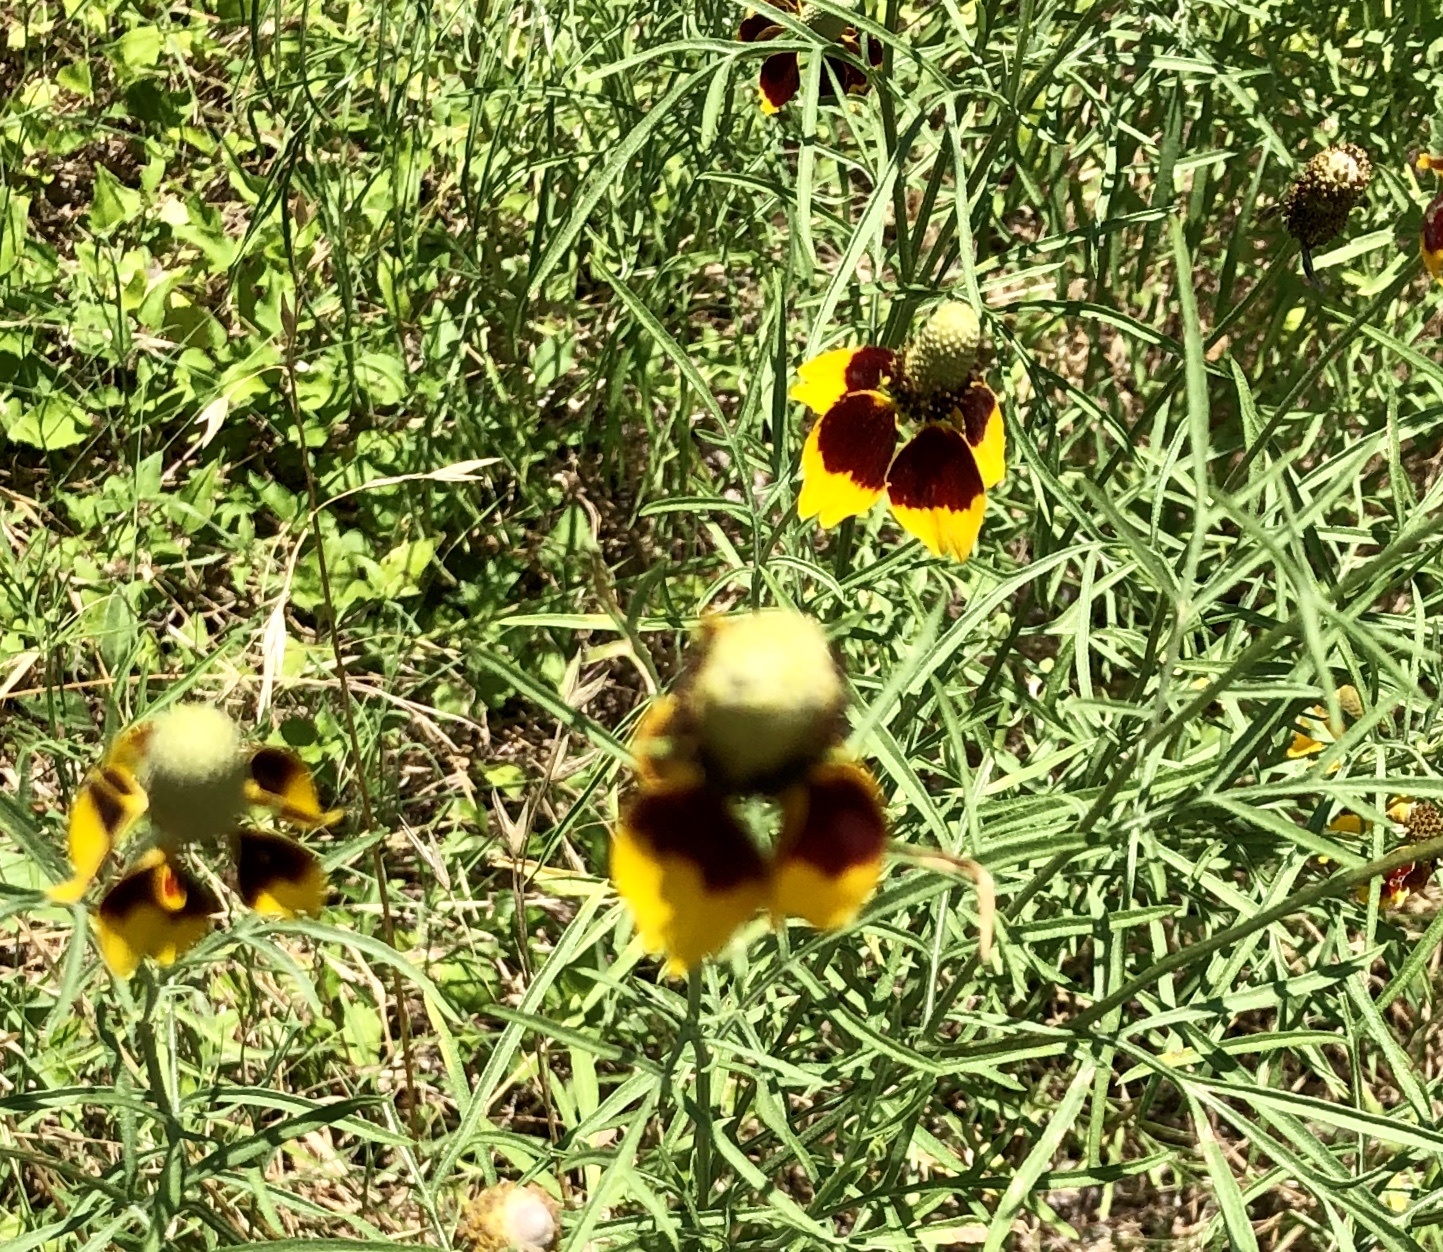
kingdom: Plantae
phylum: Tracheophyta
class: Magnoliopsida
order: Asterales
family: Asteraceae
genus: Ratibida
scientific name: Ratibida columnifera
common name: Prairie coneflower
